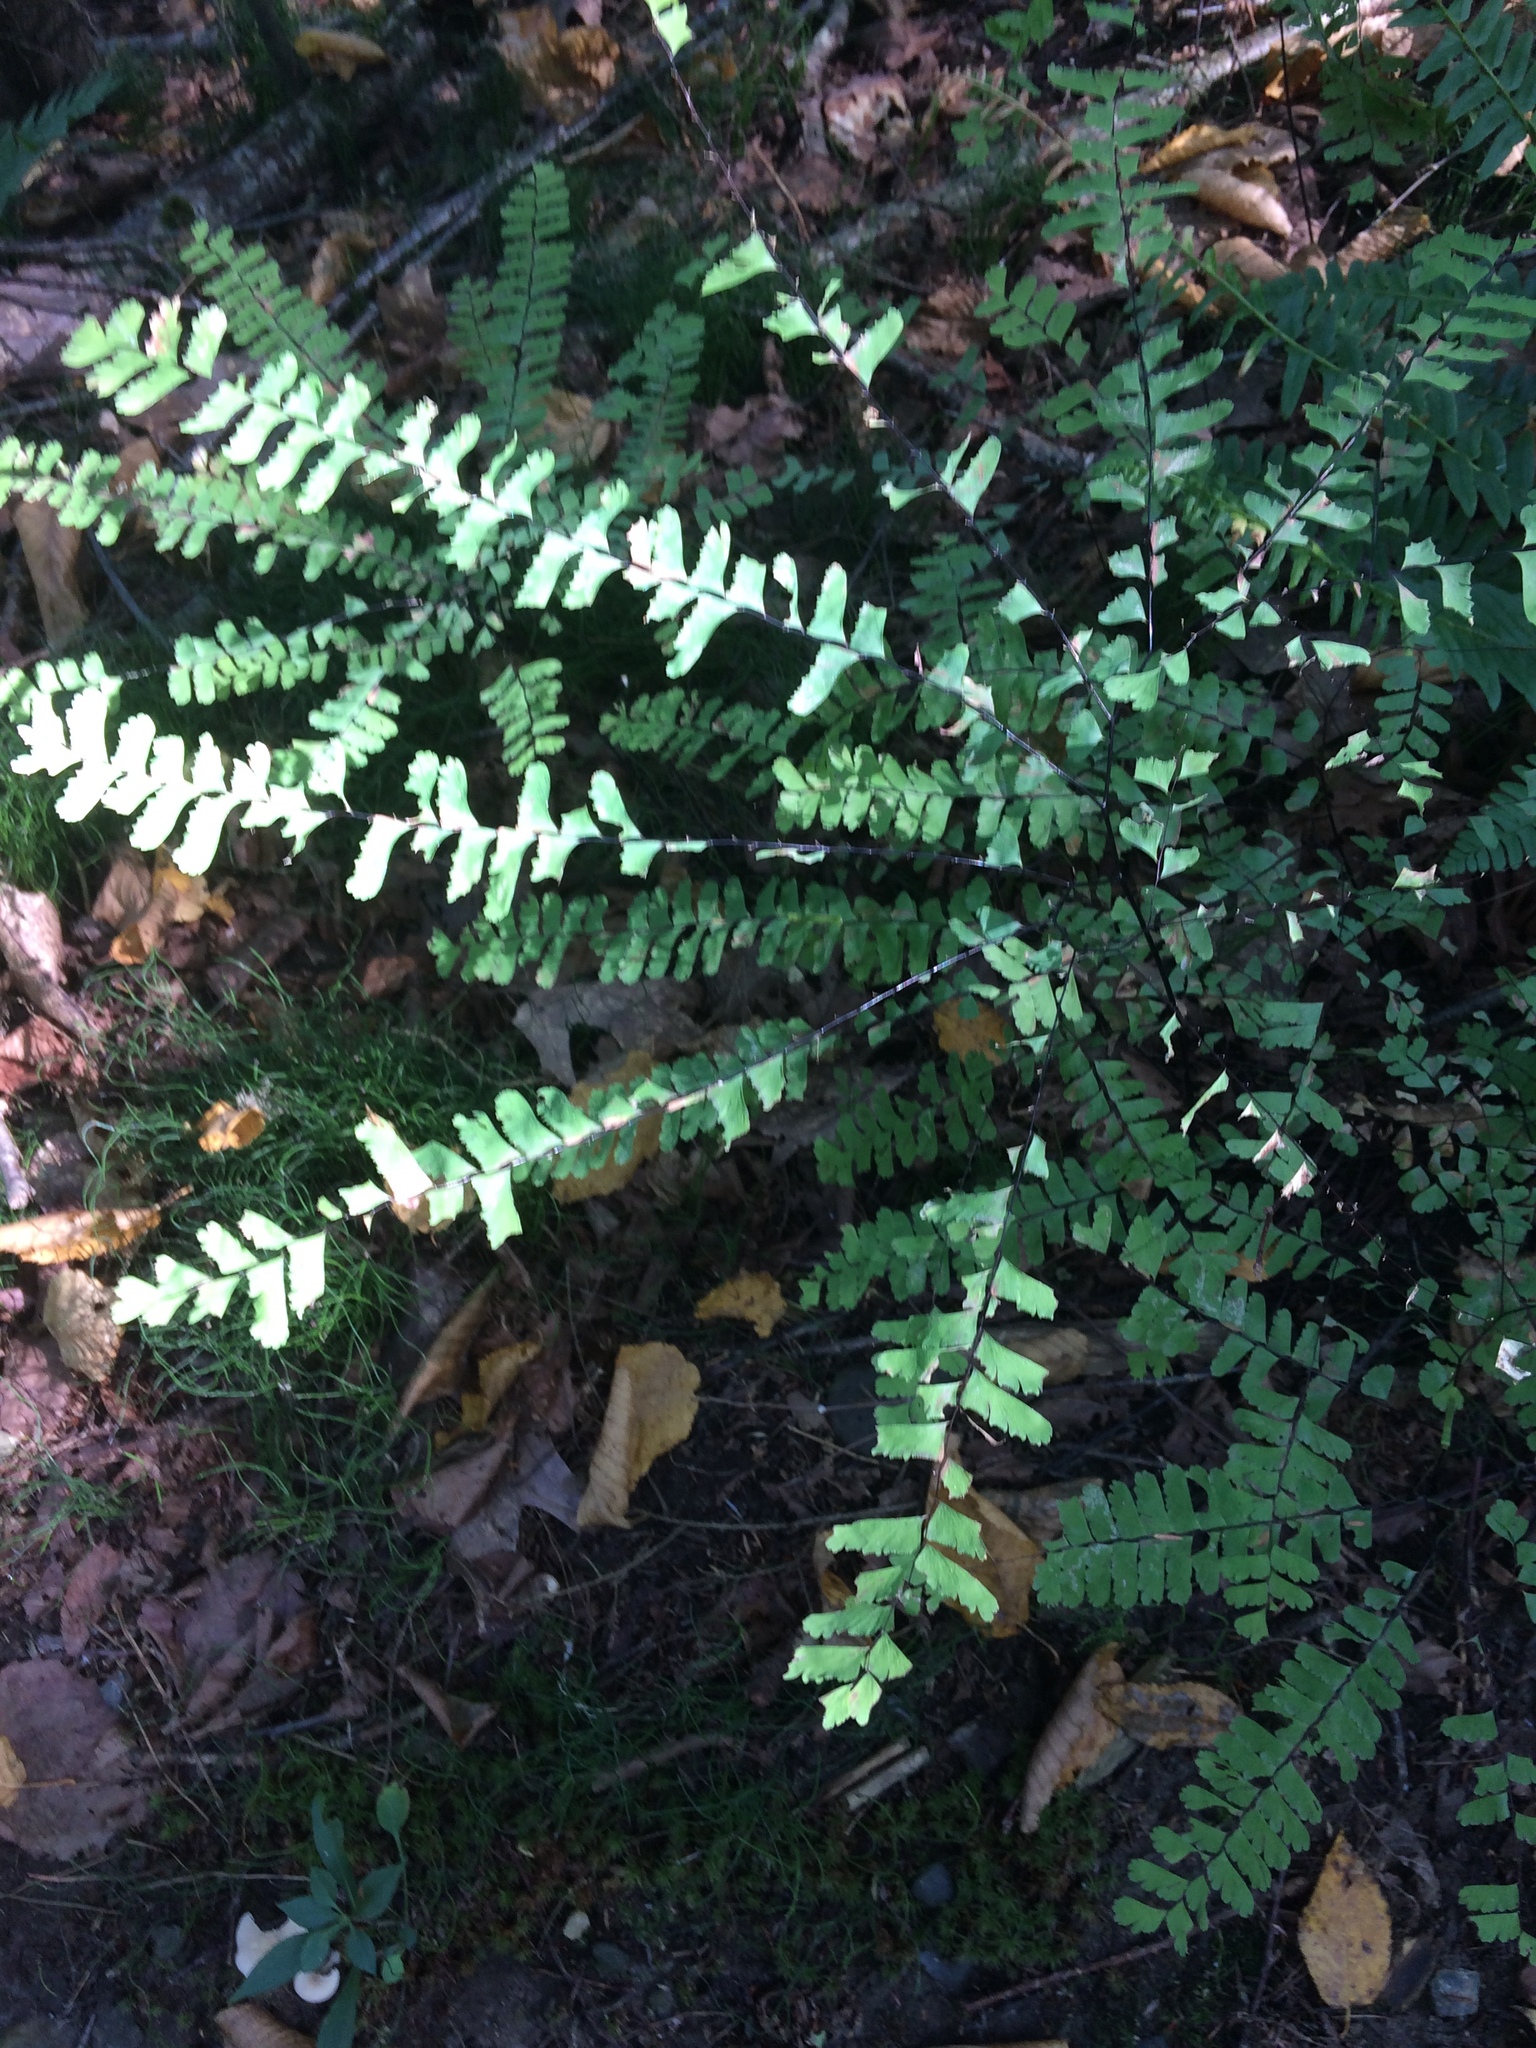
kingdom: Plantae
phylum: Tracheophyta
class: Polypodiopsida
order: Polypodiales
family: Pteridaceae
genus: Adiantum
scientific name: Adiantum pedatum
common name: Five-finger fern
